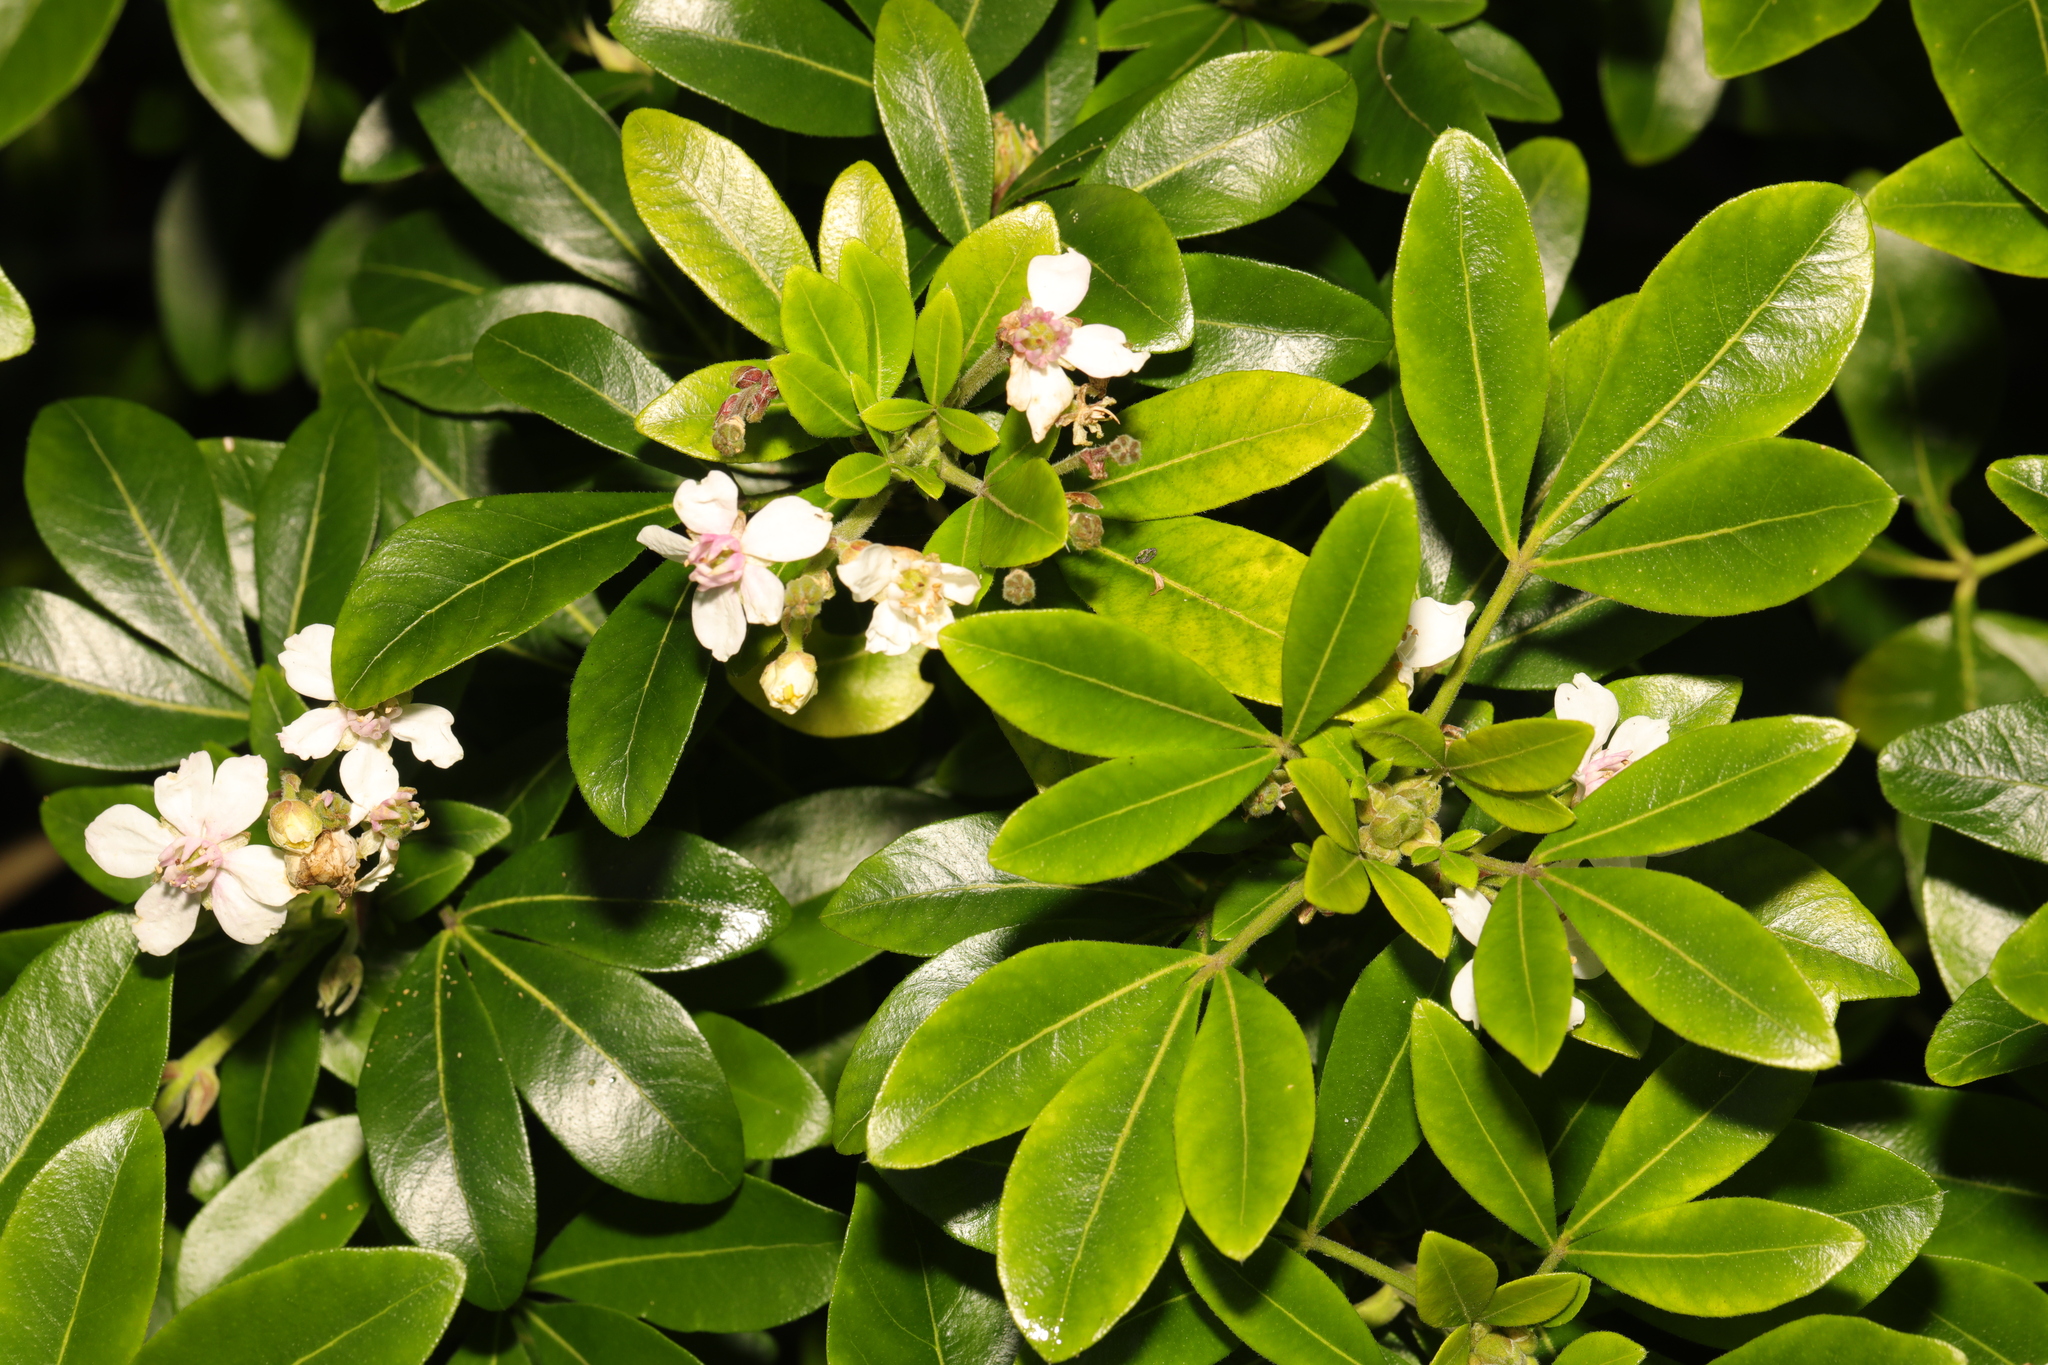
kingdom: Plantae
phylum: Tracheophyta
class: Magnoliopsida
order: Sapindales
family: Rutaceae
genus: Choisya
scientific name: Choisya ternata
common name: Mexican orange
